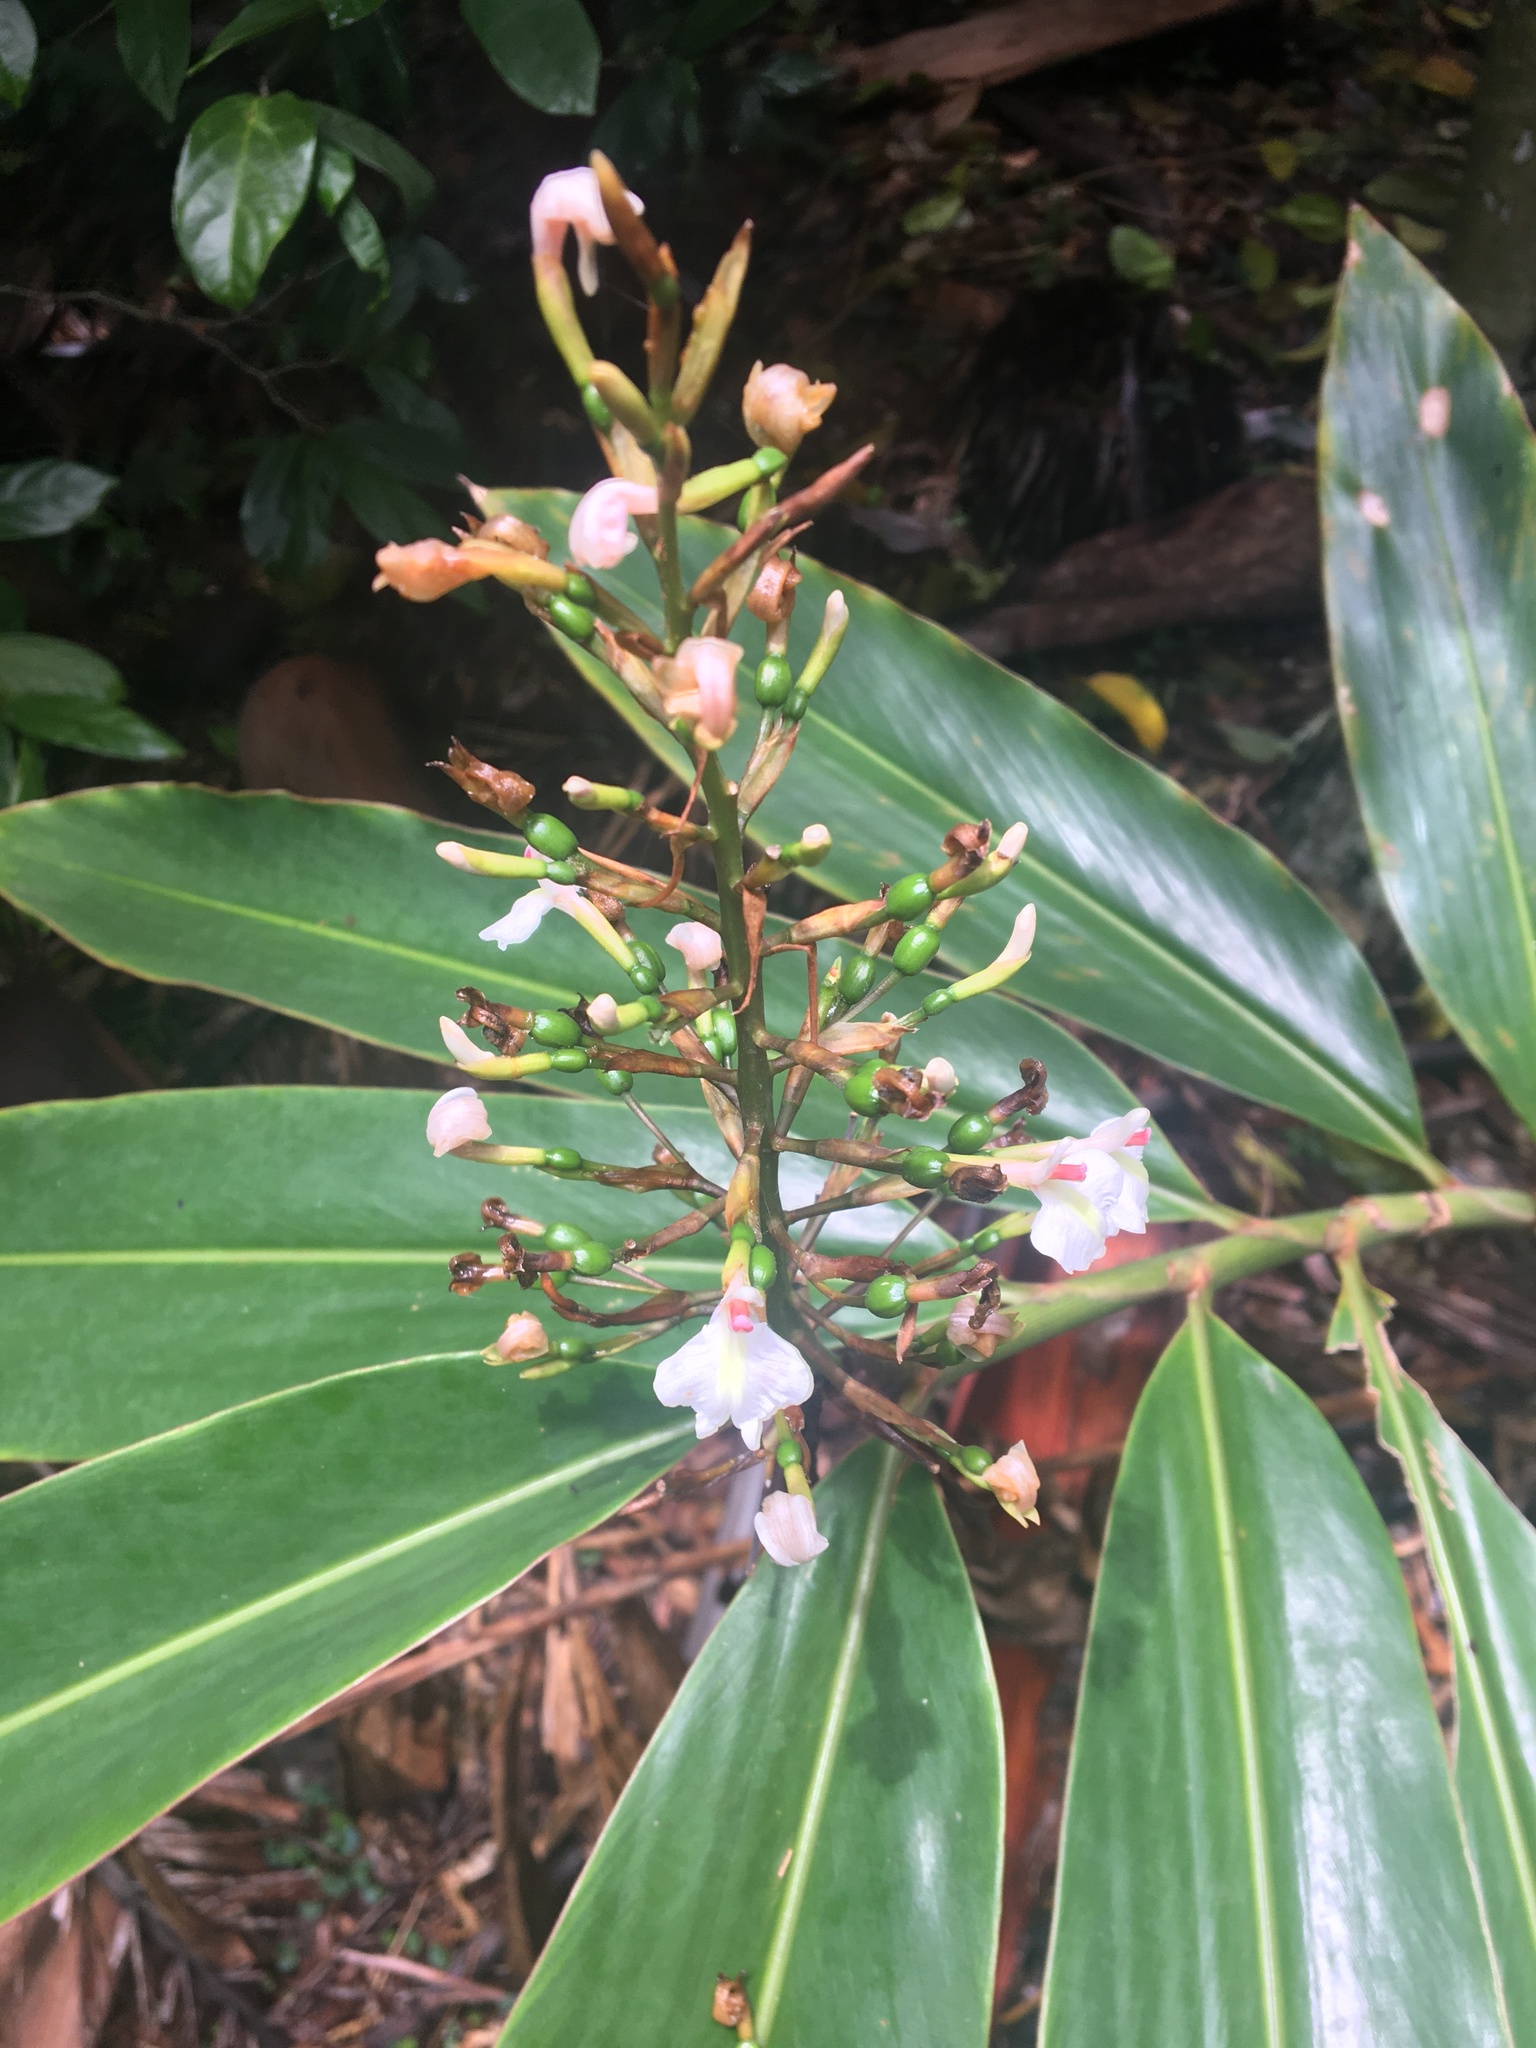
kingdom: Plantae
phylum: Tracheophyta
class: Liliopsida
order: Zingiberales
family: Zingiberaceae
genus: Alpinia
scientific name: Alpinia caerulea
